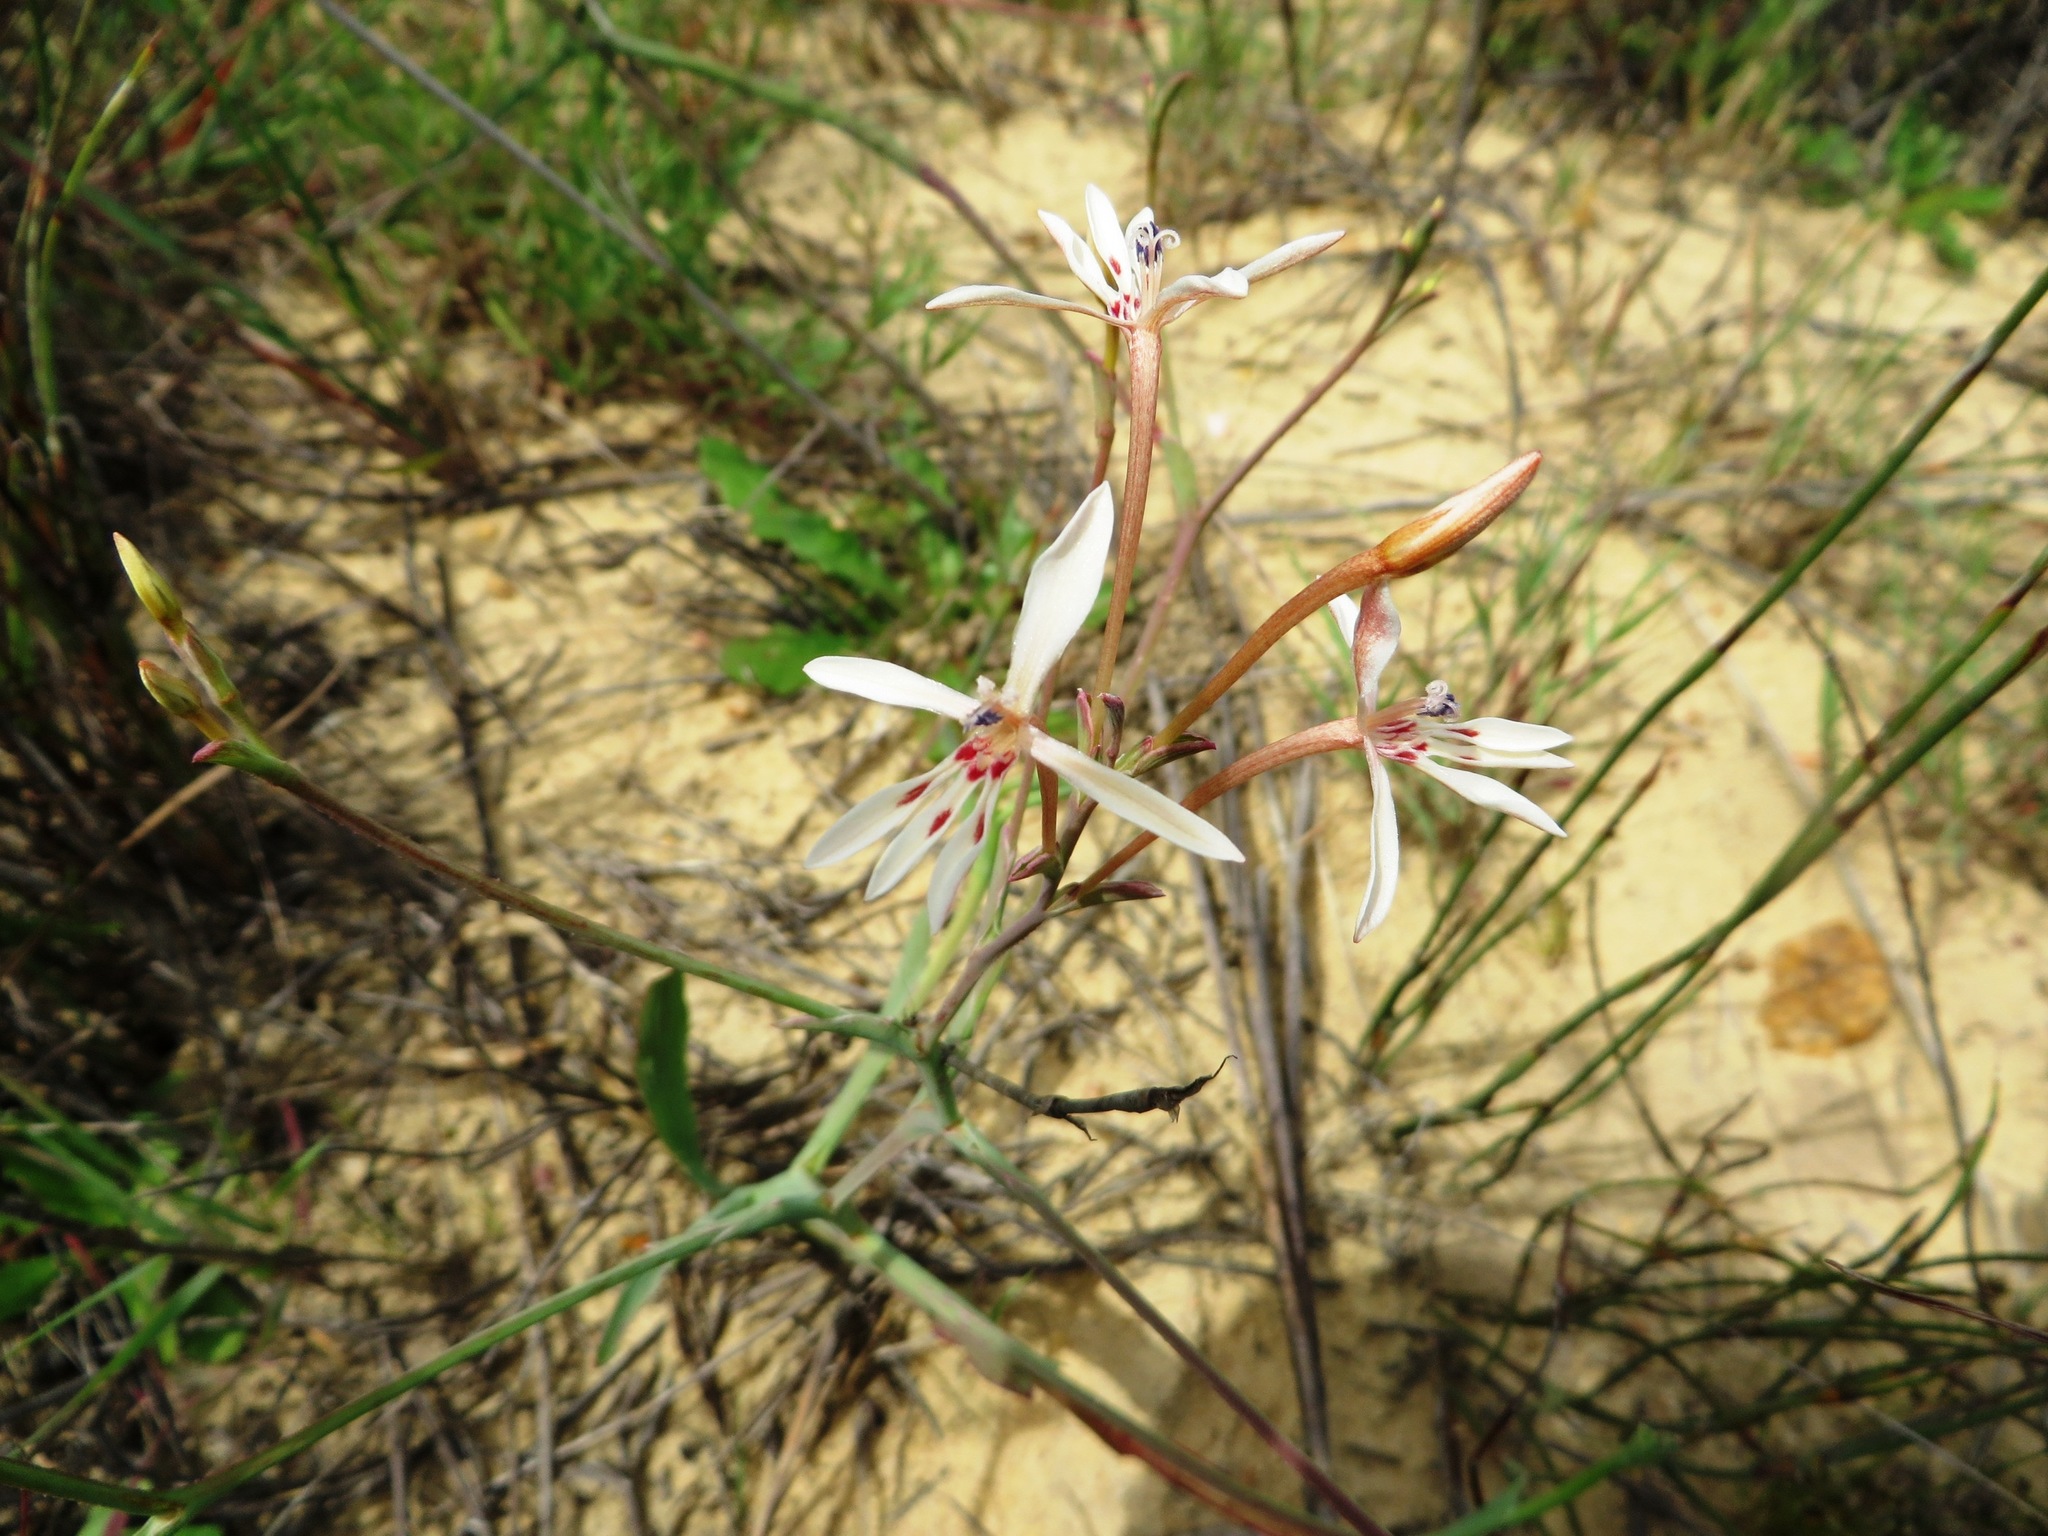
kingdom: Plantae
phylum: Tracheophyta
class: Liliopsida
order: Asparagales
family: Iridaceae
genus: Lapeirousia
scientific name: Lapeirousia anceps
